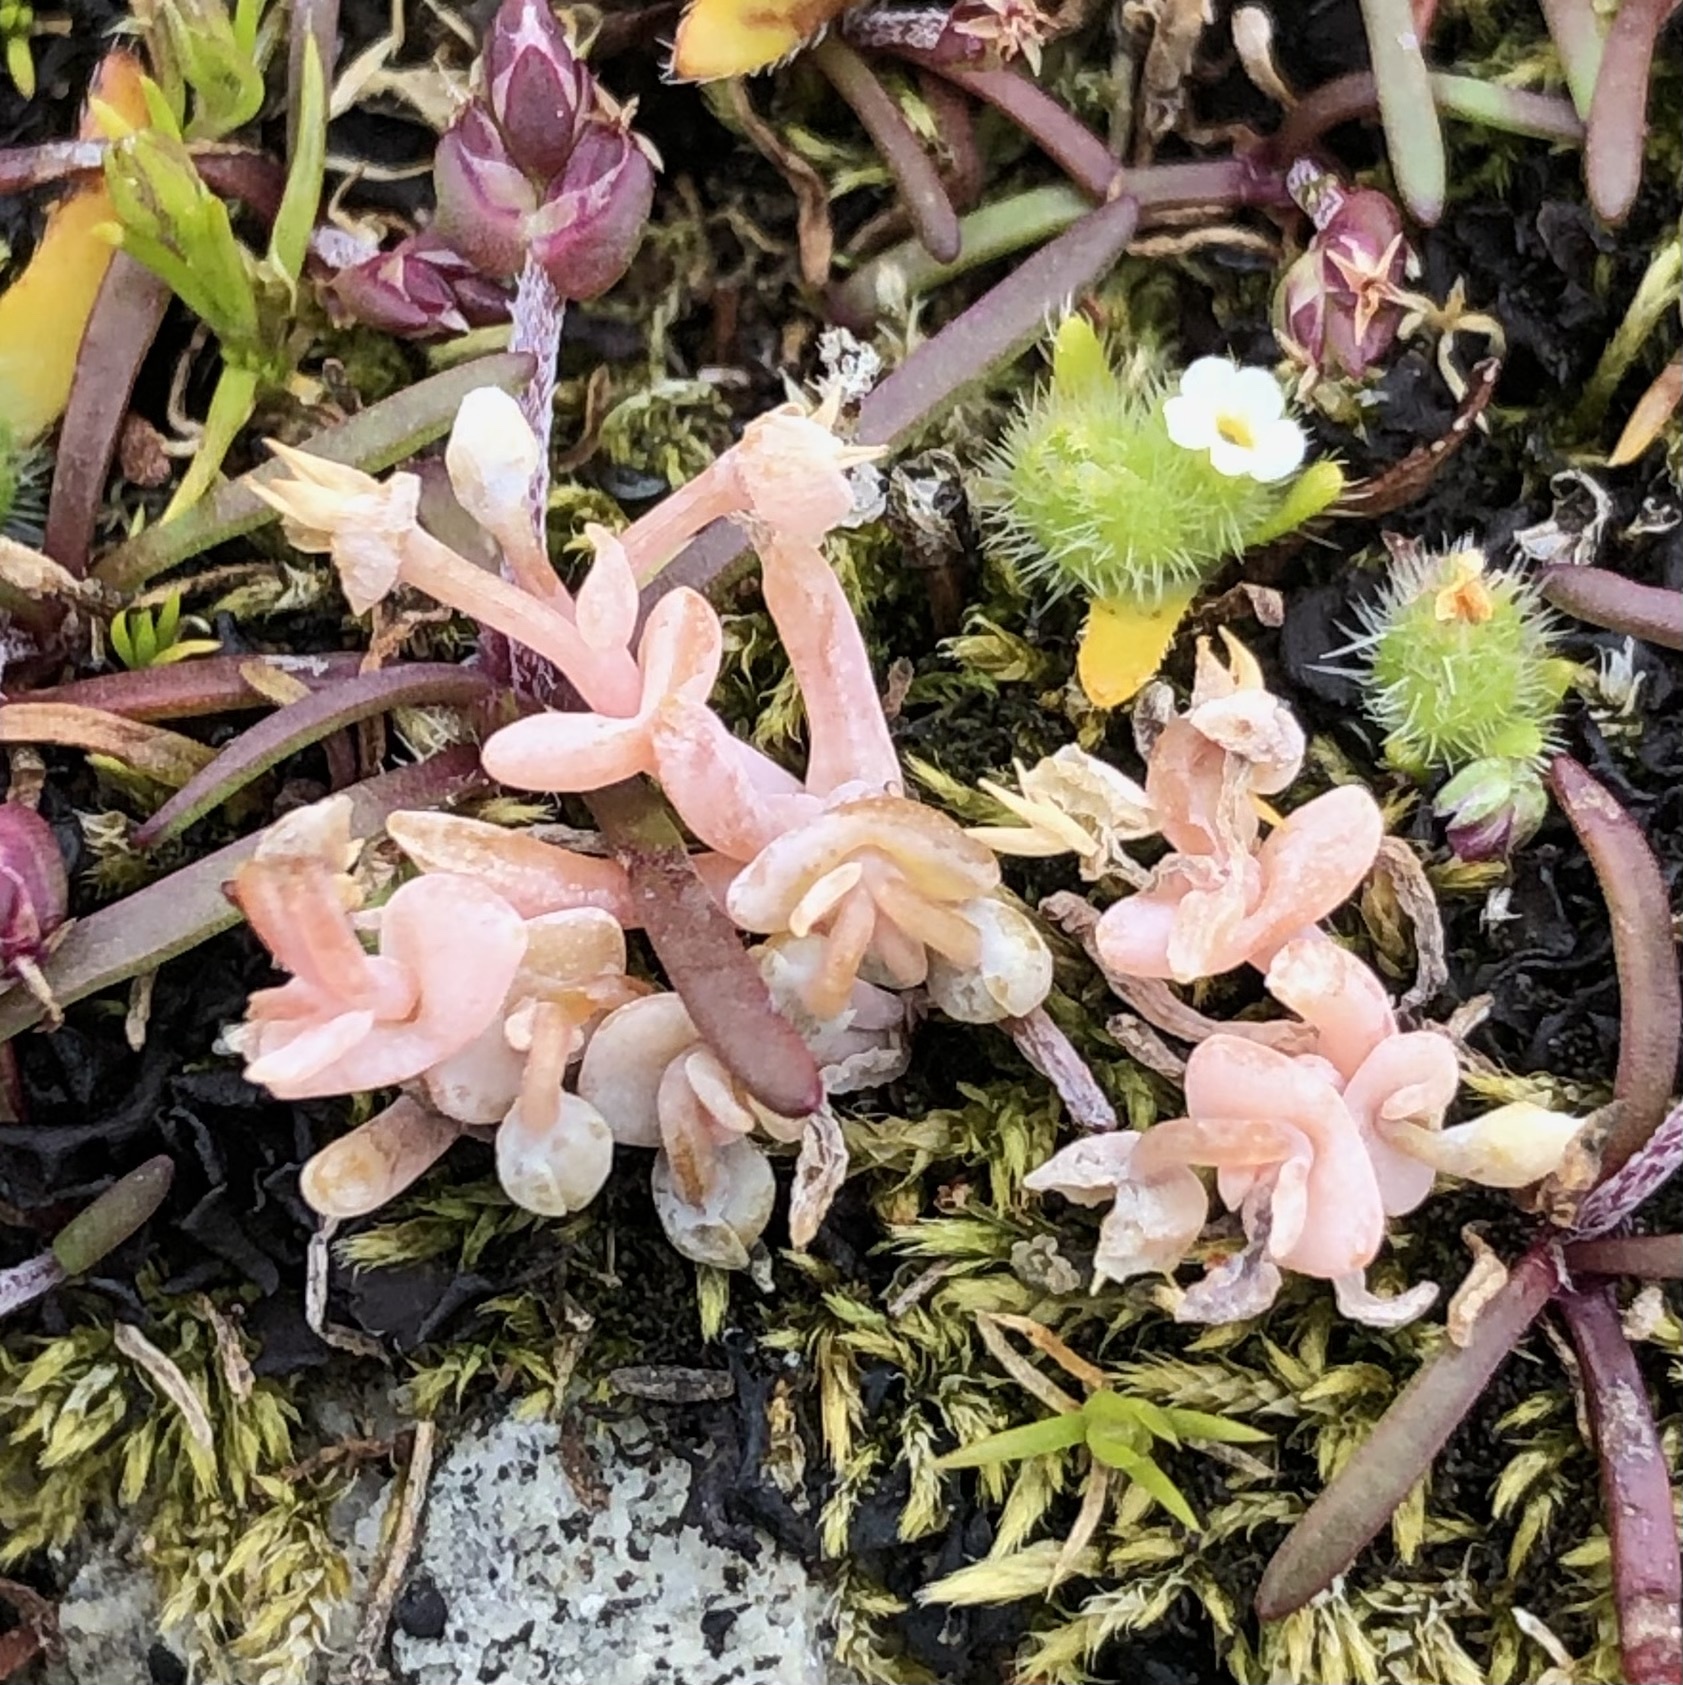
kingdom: Plantae
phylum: Tracheophyta
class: Magnoliopsida
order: Caryophyllales
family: Montiaceae
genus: Claytonia
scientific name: Claytonia exigua
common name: Pale spring beauty
